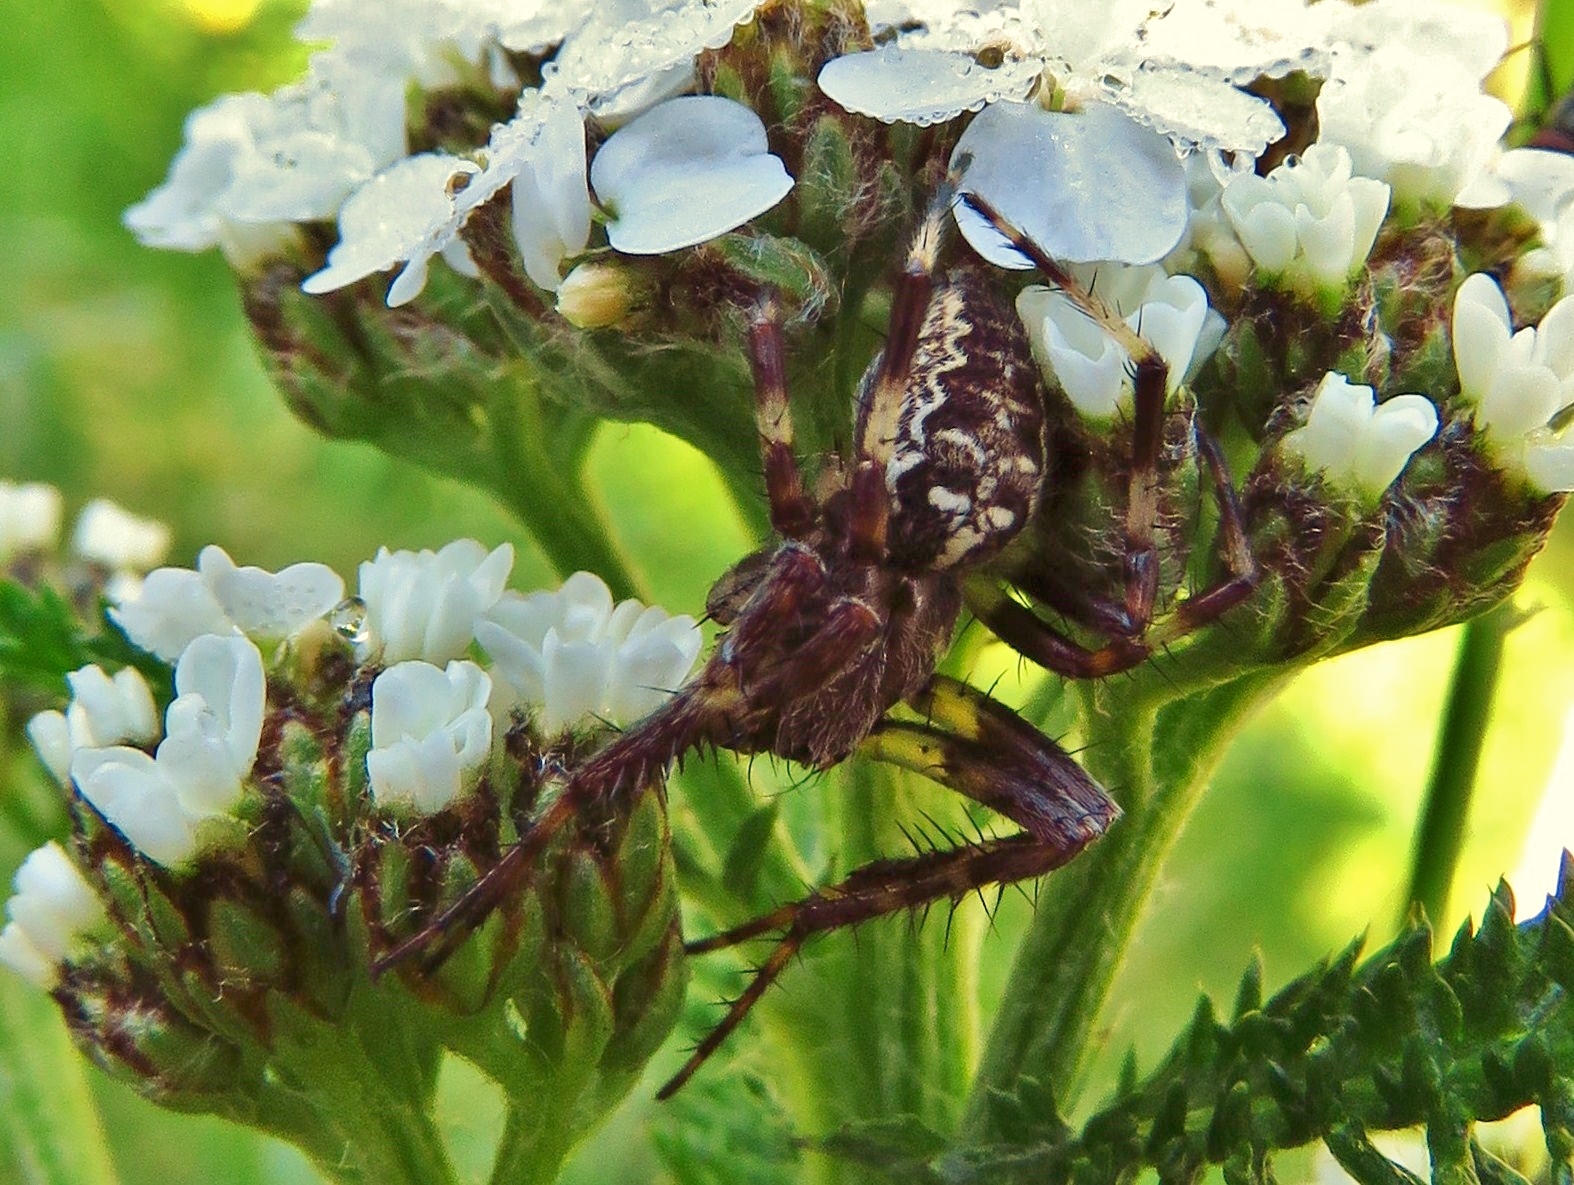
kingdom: Animalia
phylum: Arthropoda
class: Arachnida
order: Araneae
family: Araneidae
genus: Araneus
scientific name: Araneus marmoreus
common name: Marbled orbweaver
